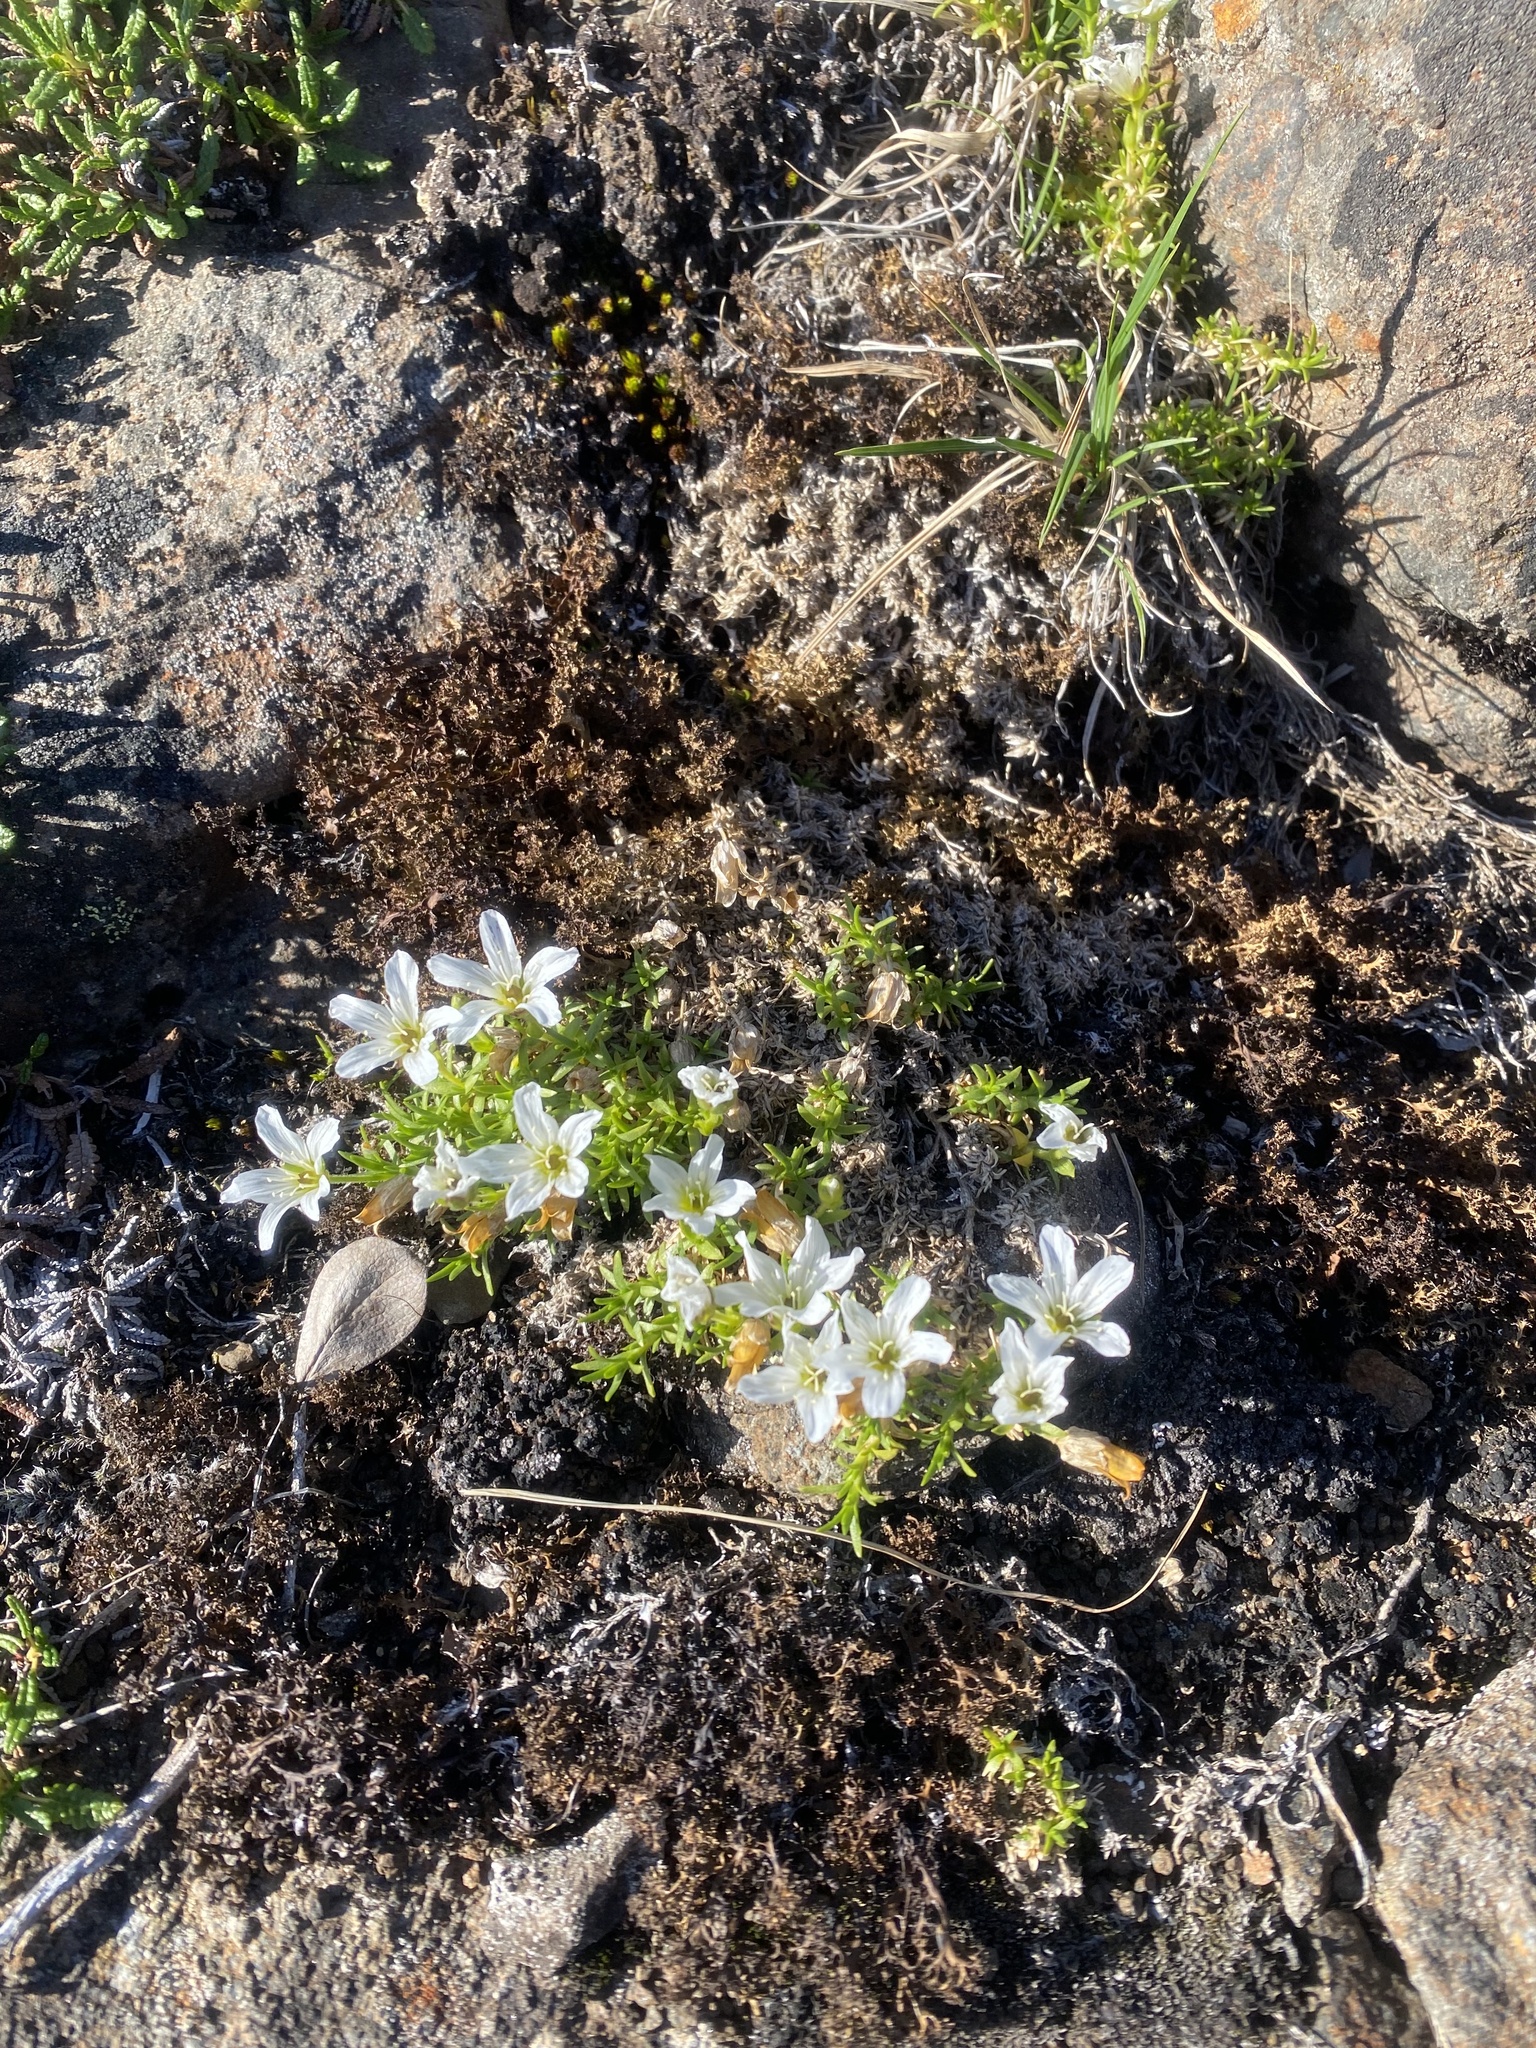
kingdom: Plantae
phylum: Tracheophyta
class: Magnoliopsida
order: Caryophyllales
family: Caryophyllaceae
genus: Pseudocherleria
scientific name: Pseudocherleria macrocarpa
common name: Large-fruit sandwort
